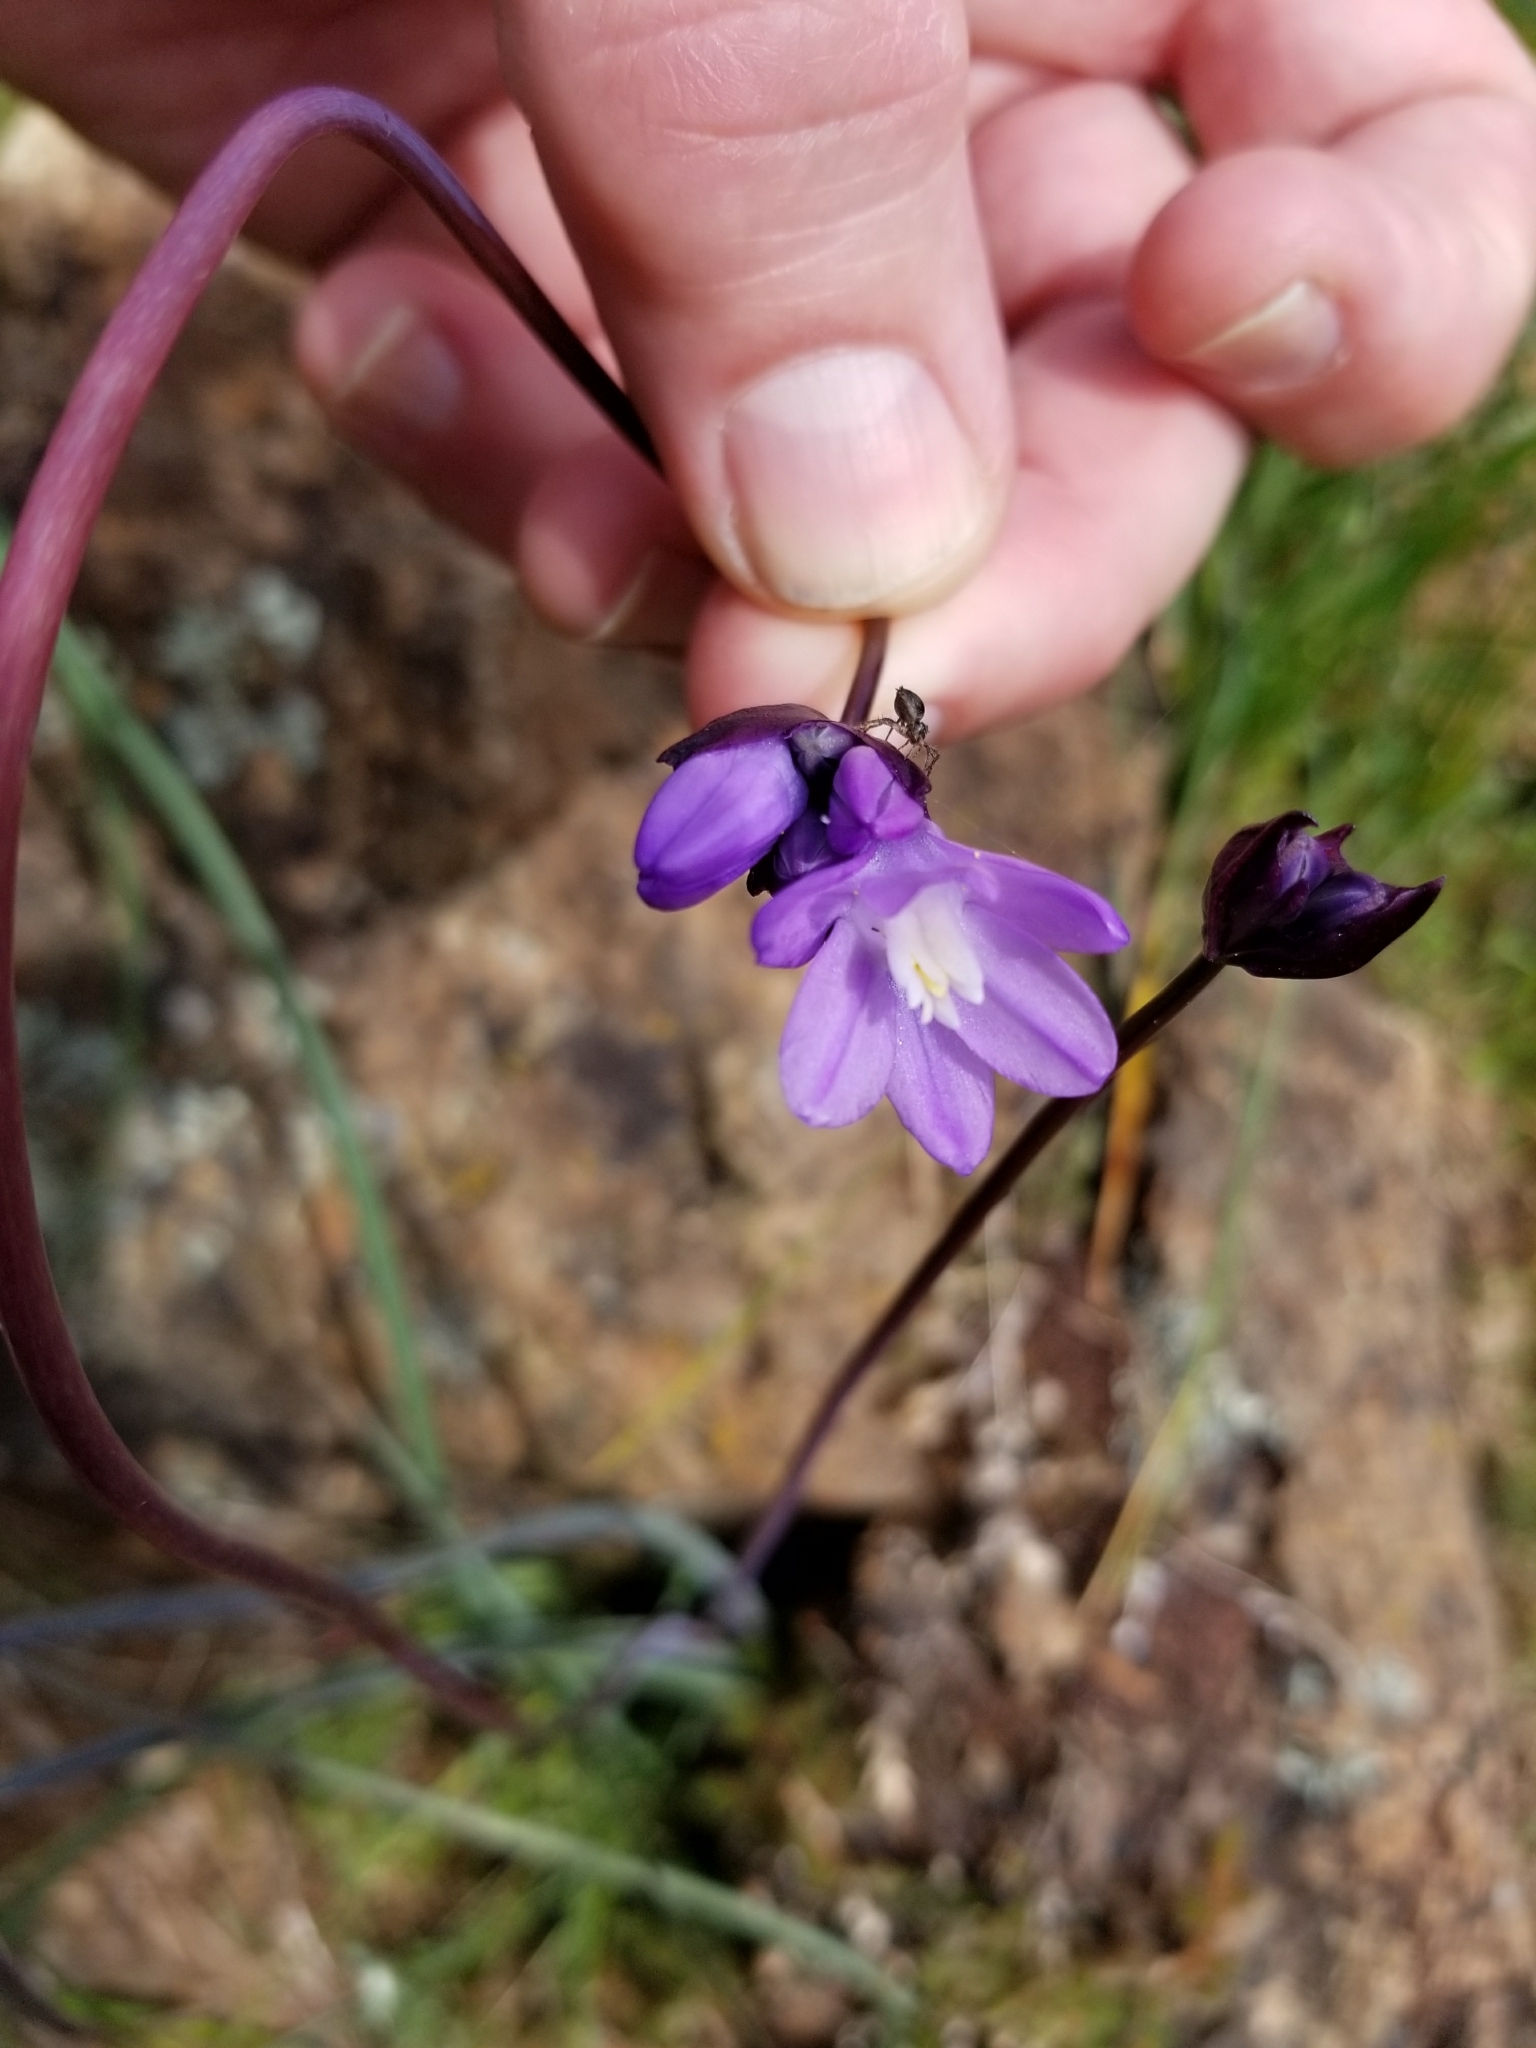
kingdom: Plantae
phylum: Tracheophyta
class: Liliopsida
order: Asparagales
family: Asparagaceae
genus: Dipterostemon
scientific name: Dipterostemon capitatus
